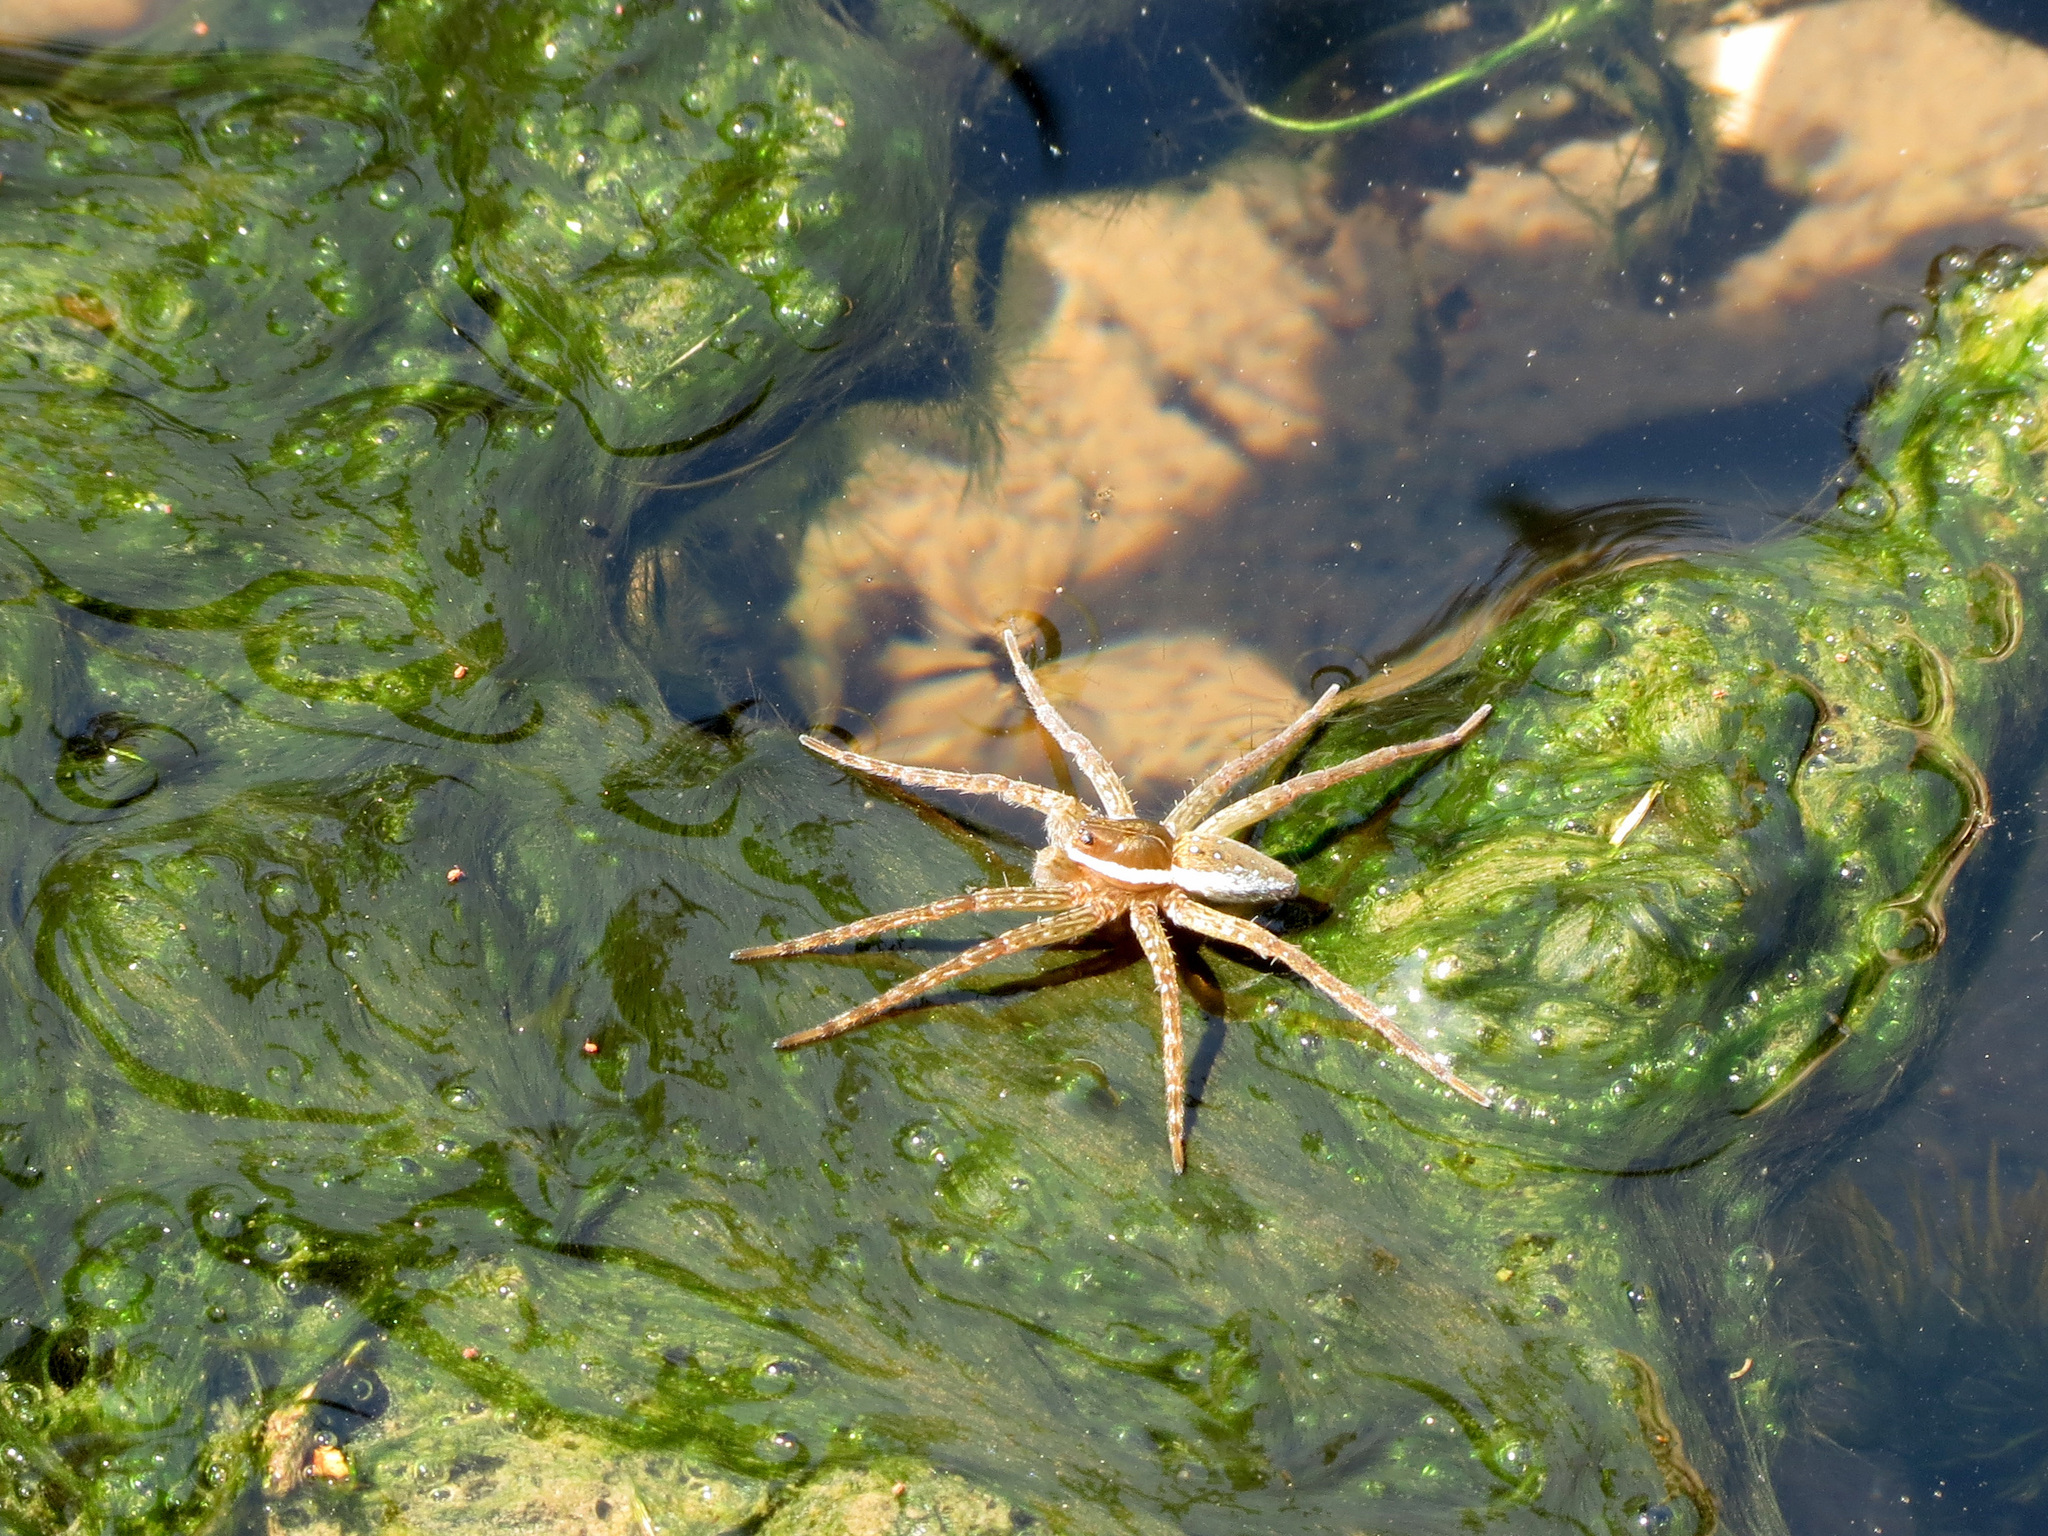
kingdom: Animalia
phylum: Arthropoda
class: Arachnida
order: Araneae
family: Pisauridae
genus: Dolomedes
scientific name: Dolomedes triton
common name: Six-spotted fishing spider
